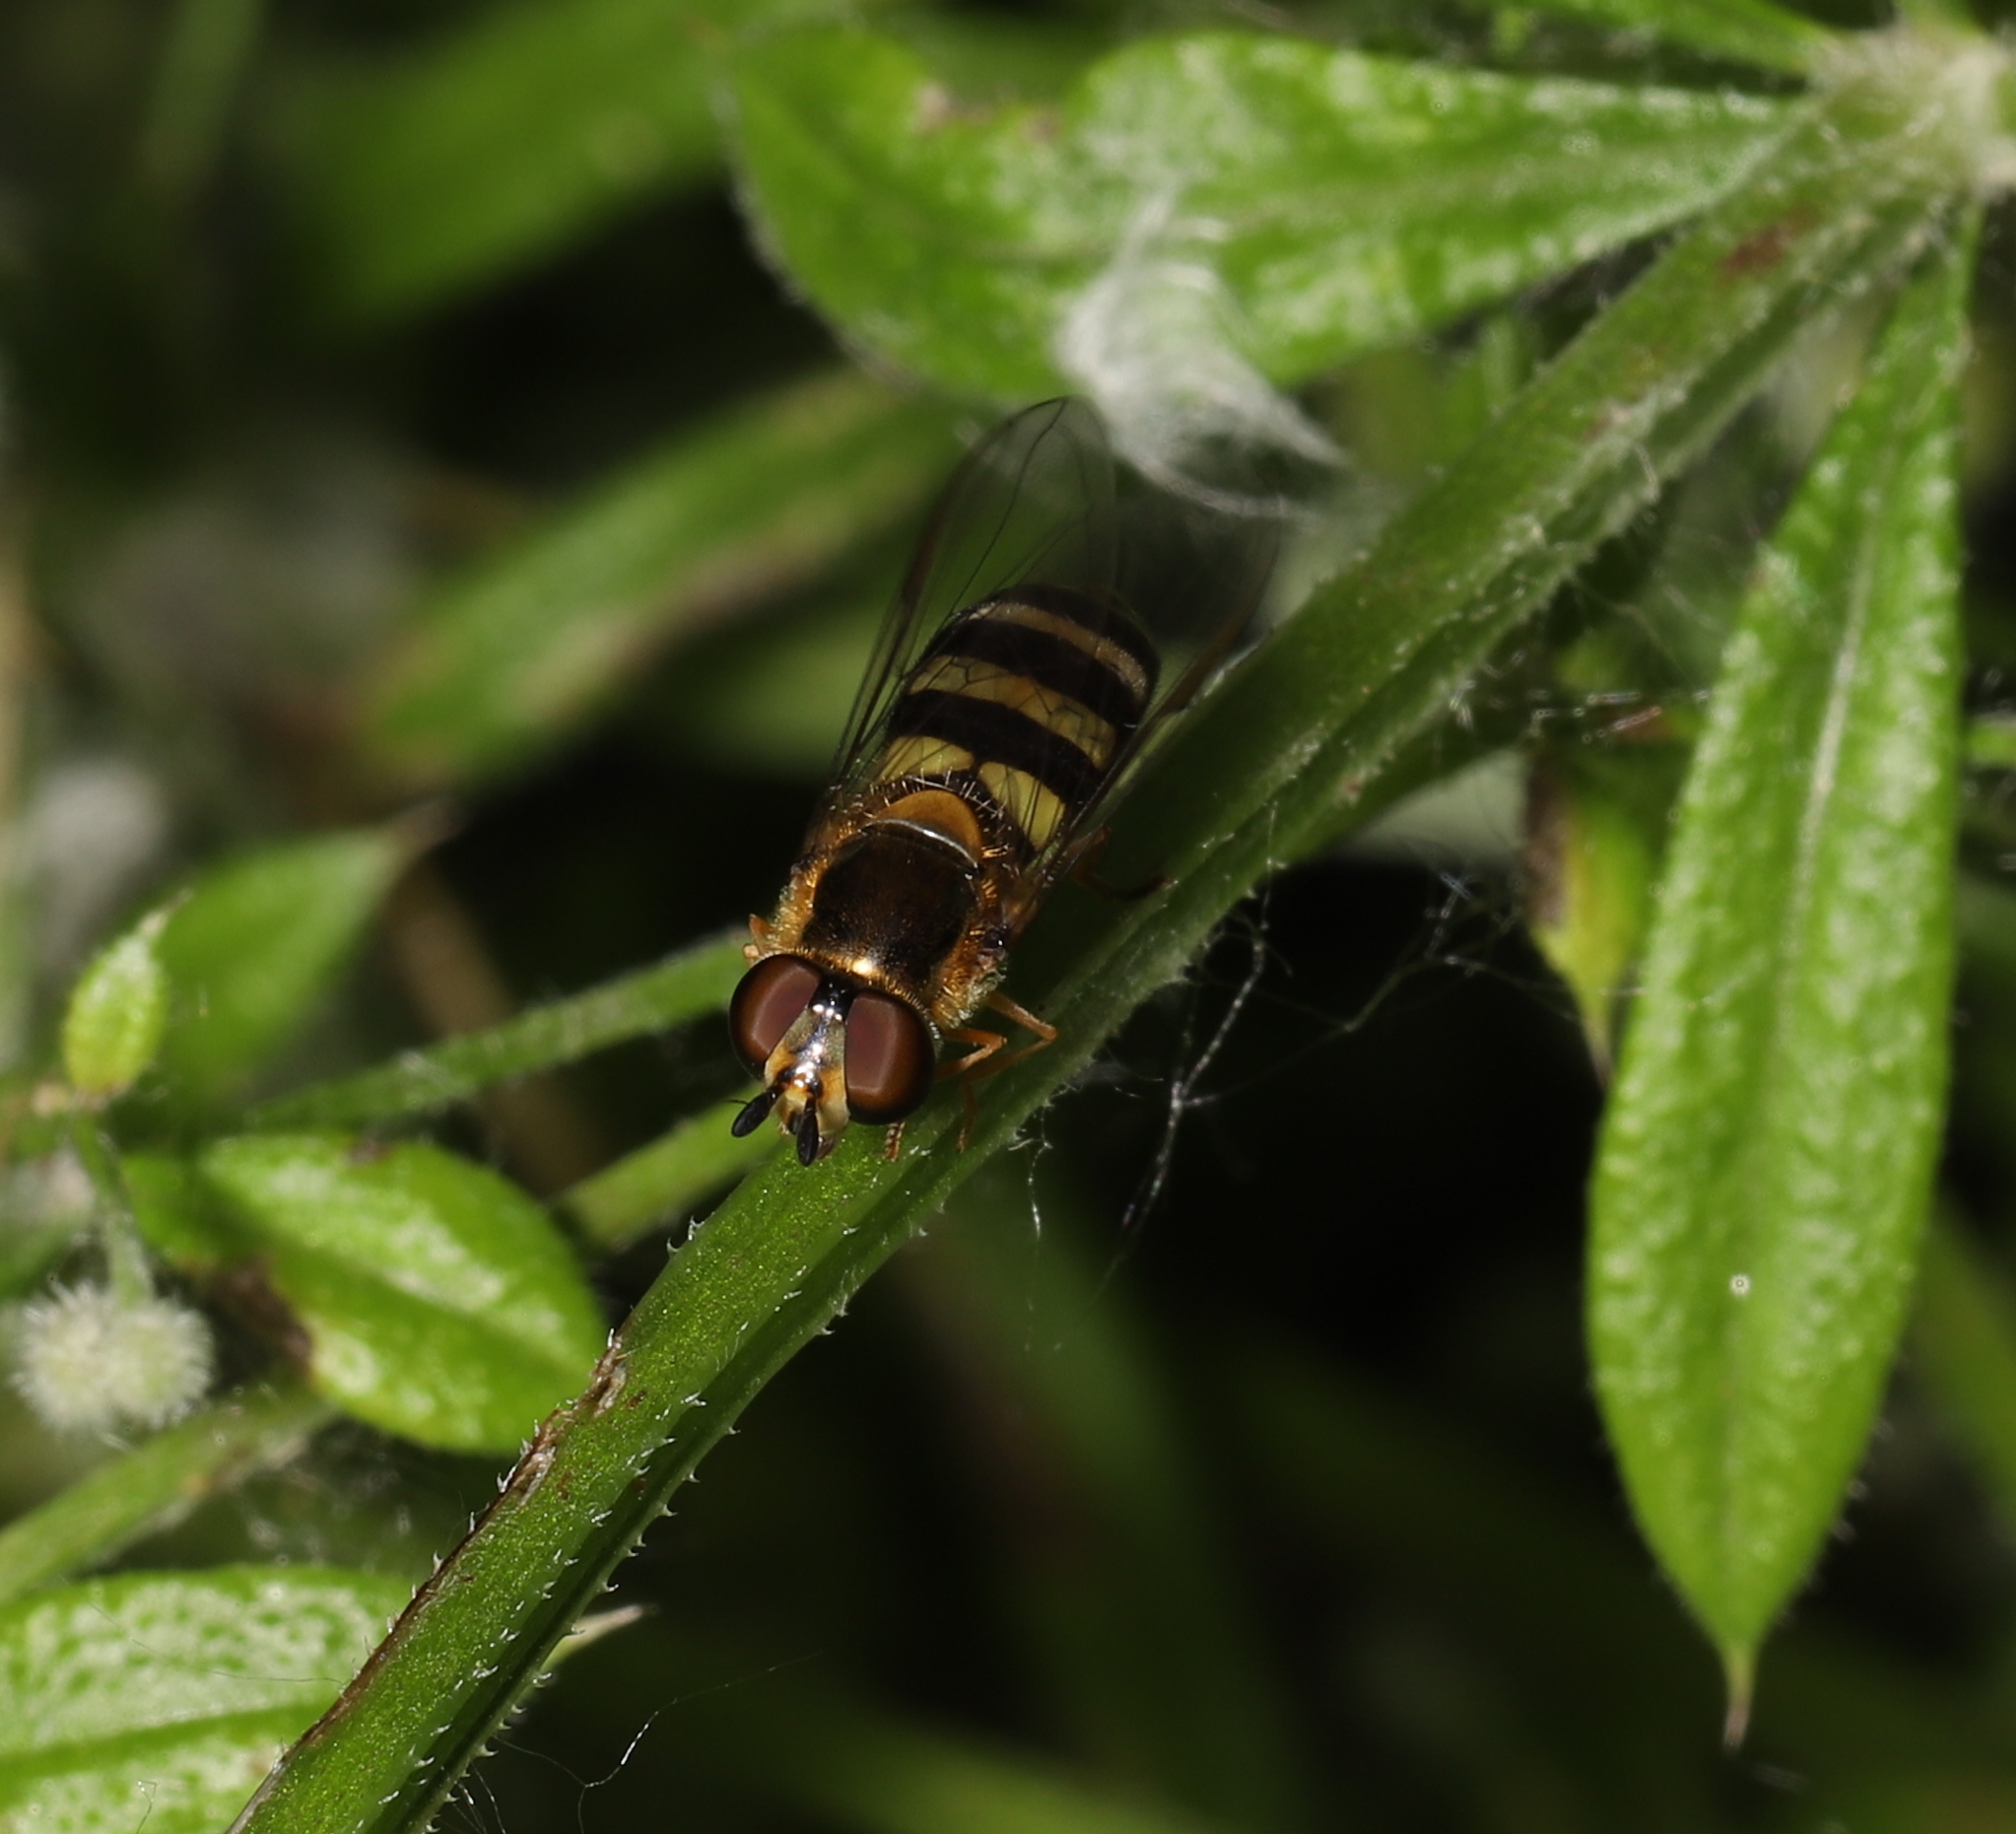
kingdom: Animalia
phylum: Arthropoda
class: Insecta
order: Diptera
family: Syrphidae
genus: Eupeodes
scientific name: Eupeodes
